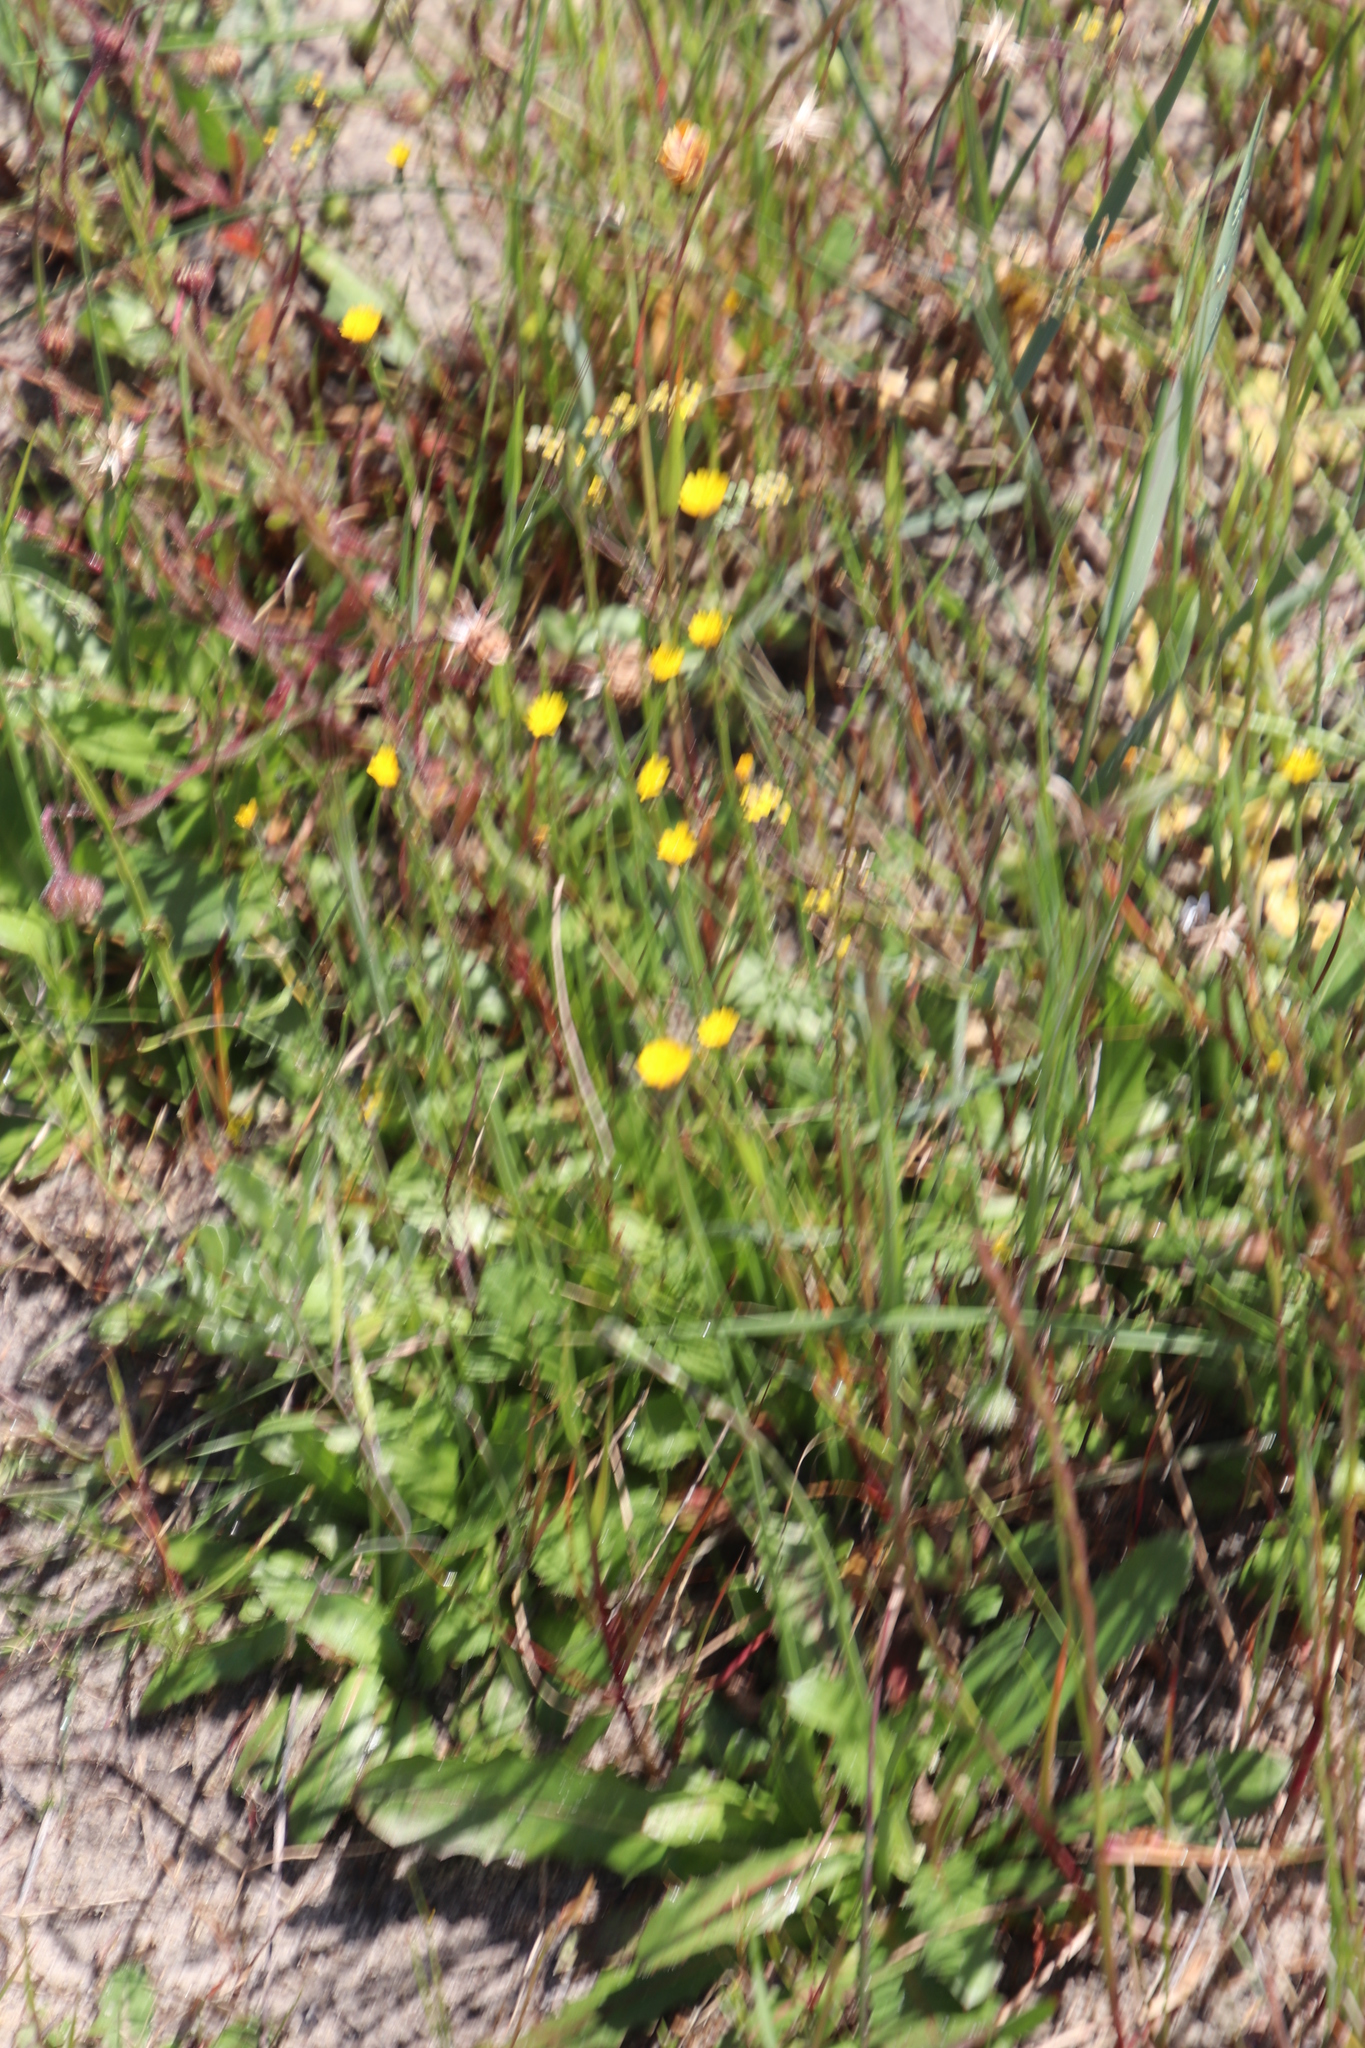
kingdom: Plantae
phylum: Tracheophyta
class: Magnoliopsida
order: Asterales
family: Asteraceae
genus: Hypochaeris
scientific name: Hypochaeris glabra
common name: Smooth catsear
